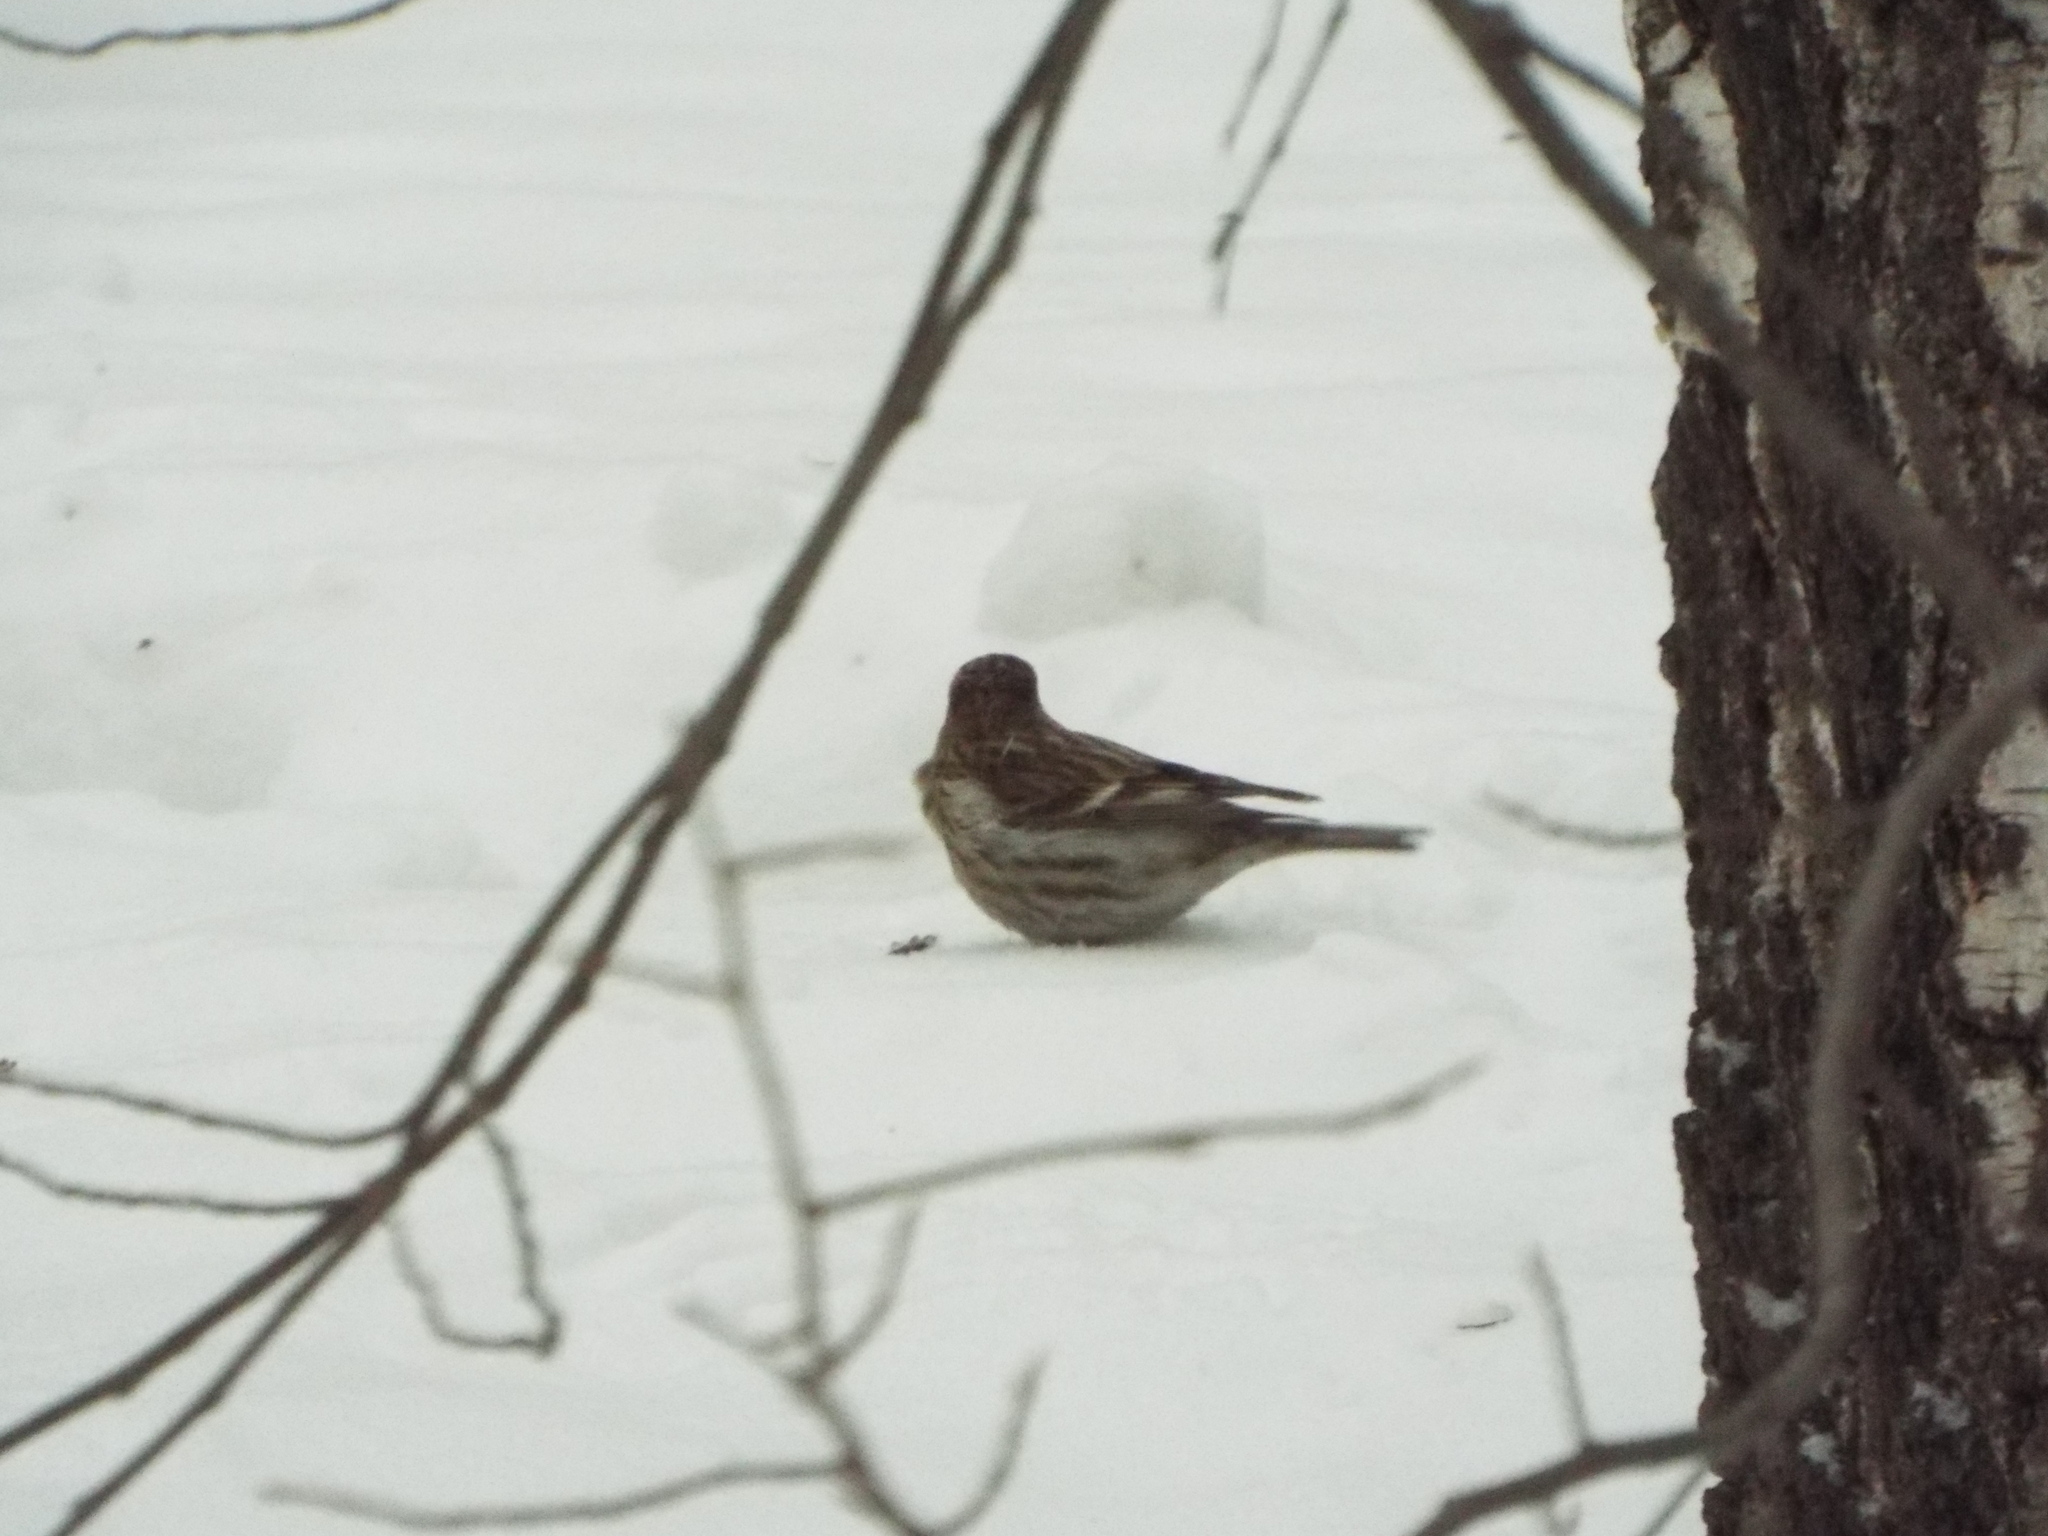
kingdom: Animalia
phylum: Chordata
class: Aves
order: Passeriformes
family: Fringillidae
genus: Acanthis
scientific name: Acanthis flammea
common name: Common redpoll
